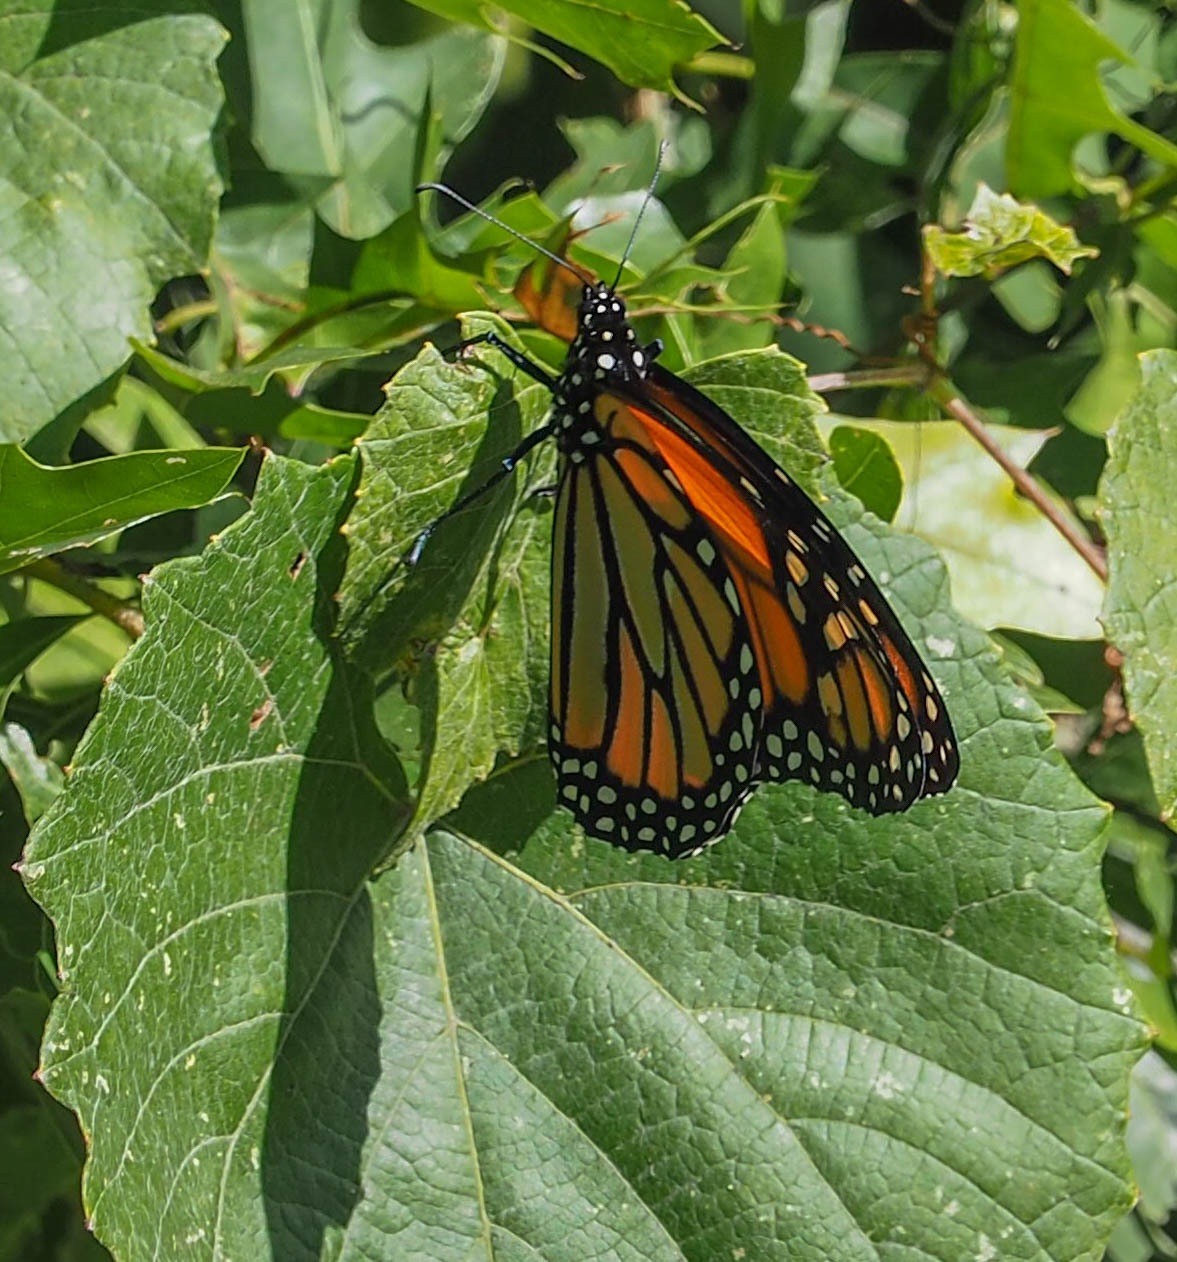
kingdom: Animalia
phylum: Arthropoda
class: Insecta
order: Lepidoptera
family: Nymphalidae
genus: Danaus
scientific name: Danaus plexippus
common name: Monarch
